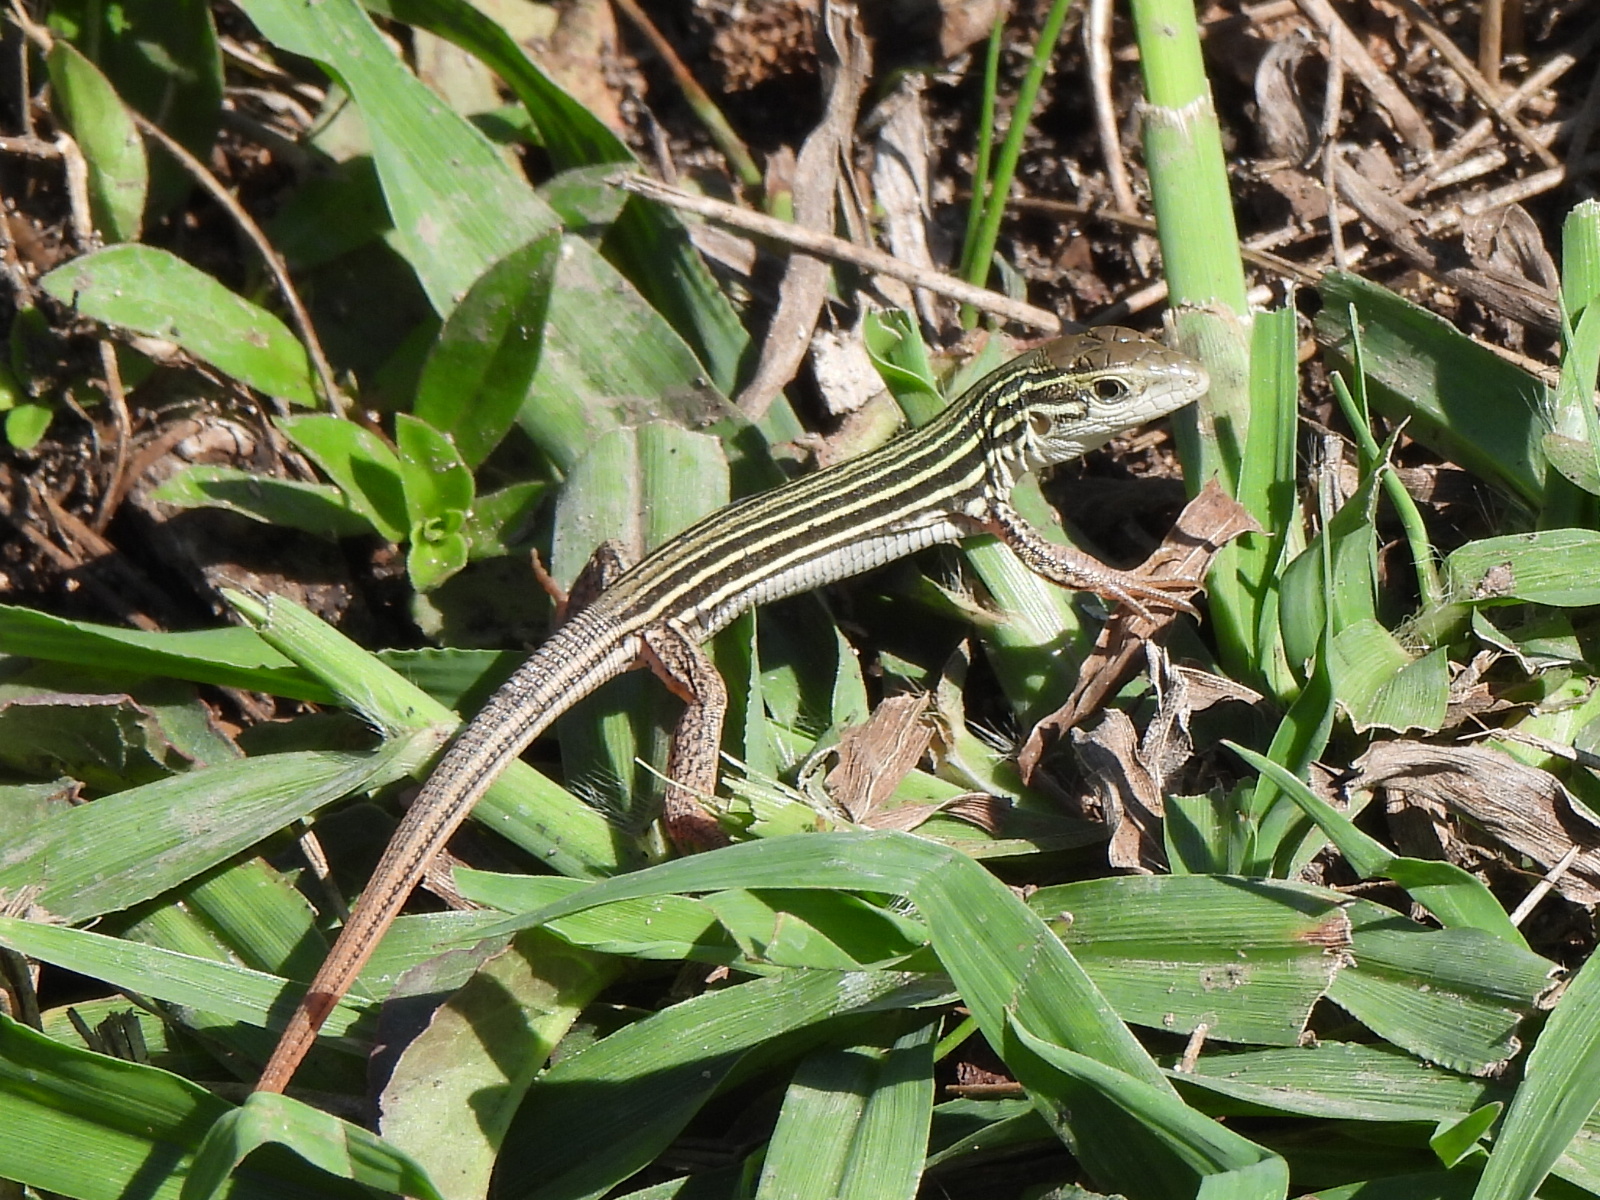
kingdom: Animalia
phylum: Chordata
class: Squamata
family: Teiidae
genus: Aspidoscelis
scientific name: Aspidoscelis gularis
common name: Eastern spotted whiptail
